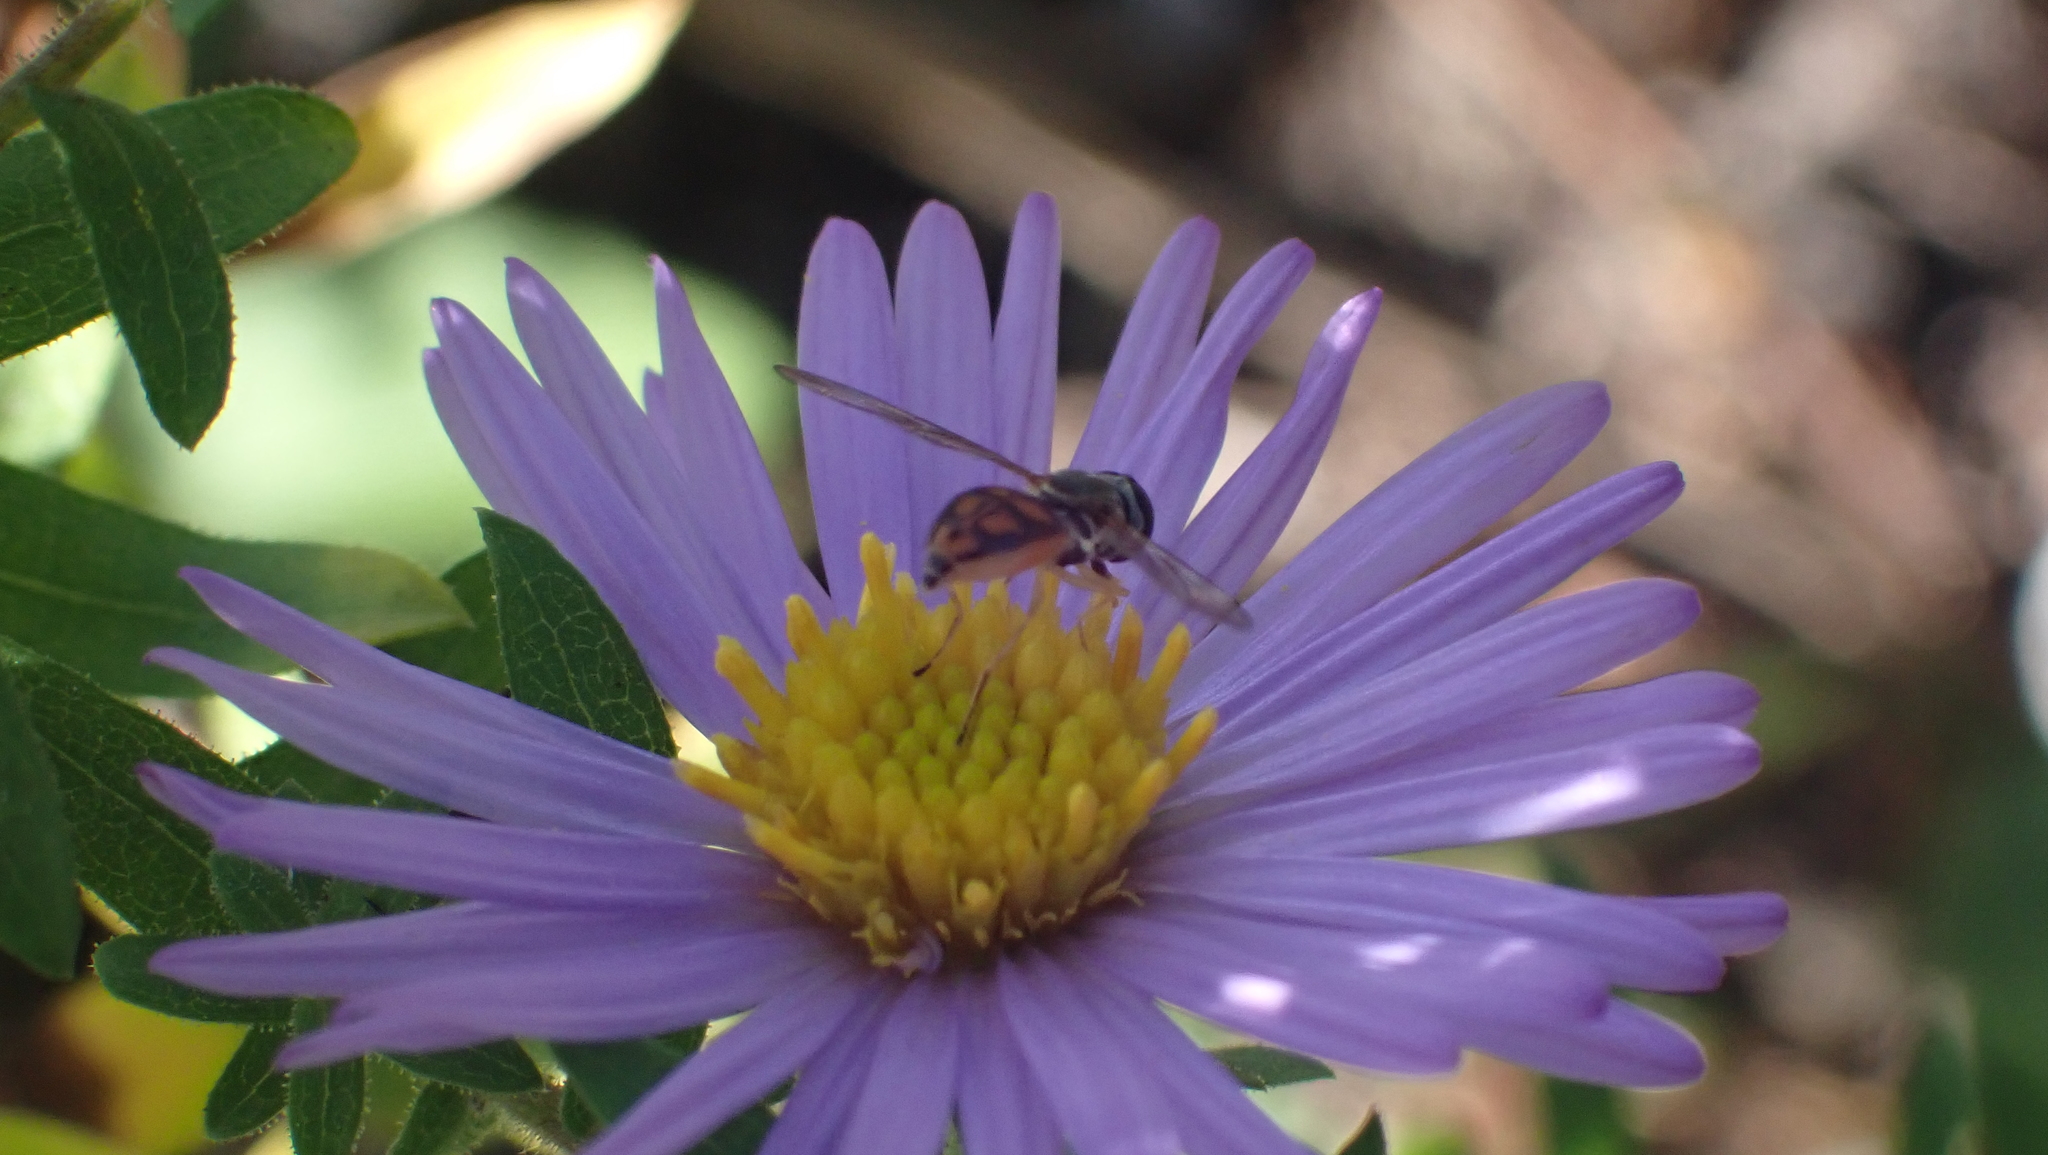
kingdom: Animalia
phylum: Arthropoda
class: Insecta
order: Diptera
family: Syrphidae
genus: Toxomerus
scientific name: Toxomerus marginatus
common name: Syrphid fly
